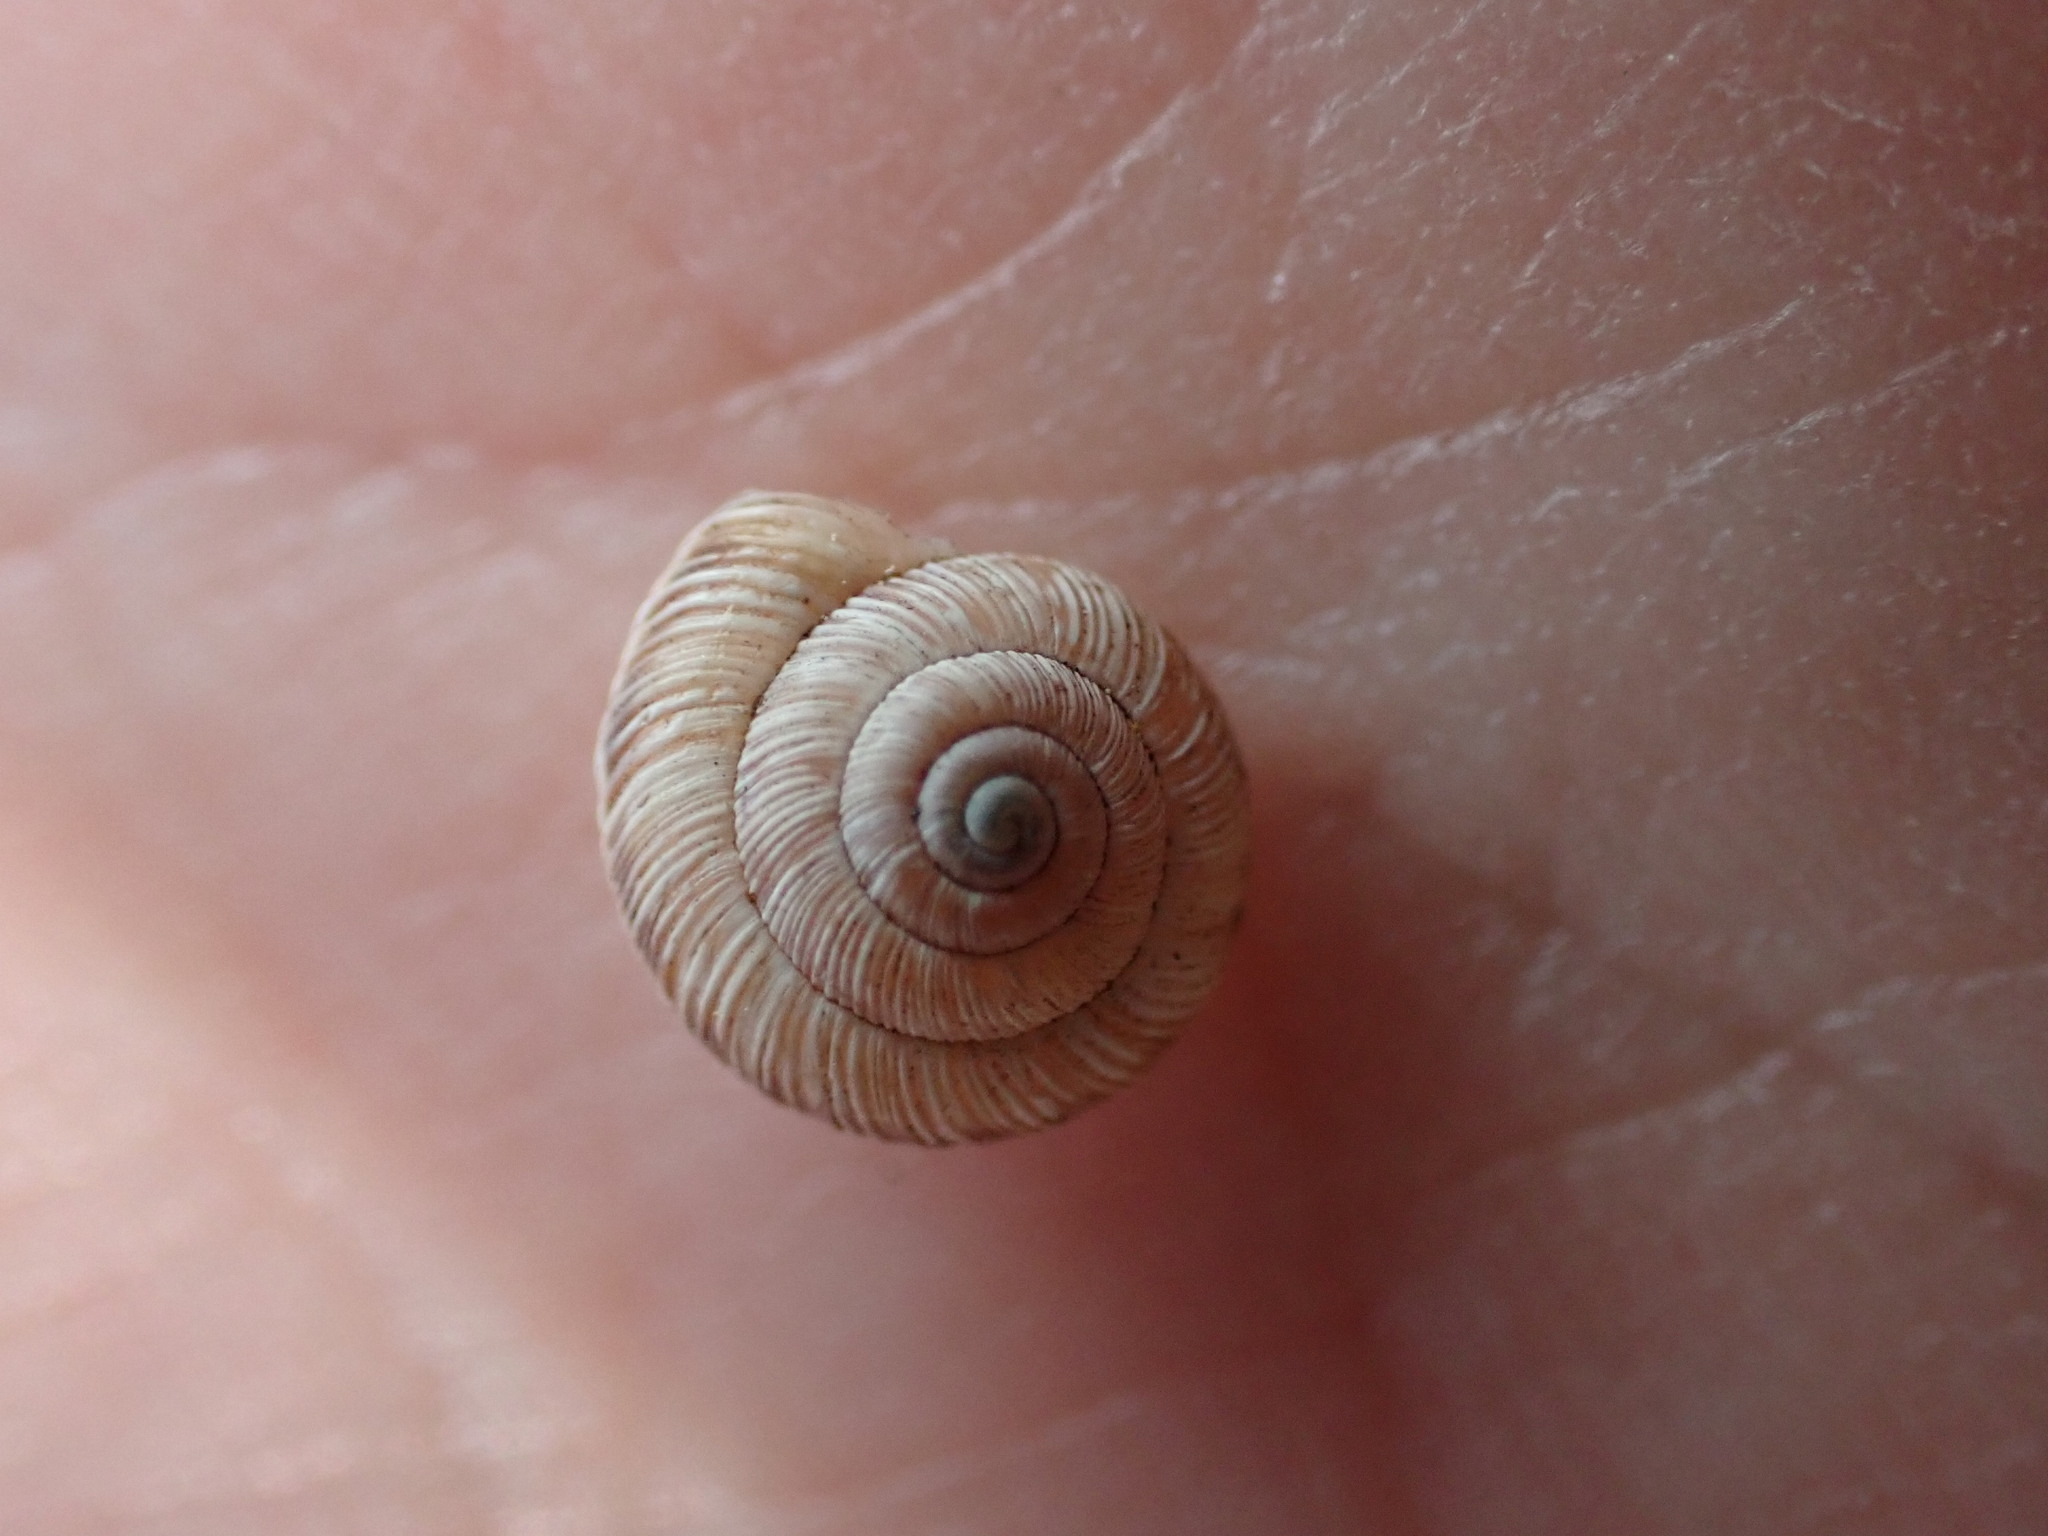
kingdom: Animalia
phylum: Mollusca
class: Gastropoda
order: Stylommatophora
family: Geomitridae
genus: Candidula
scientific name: Candidula rugosiuscula
